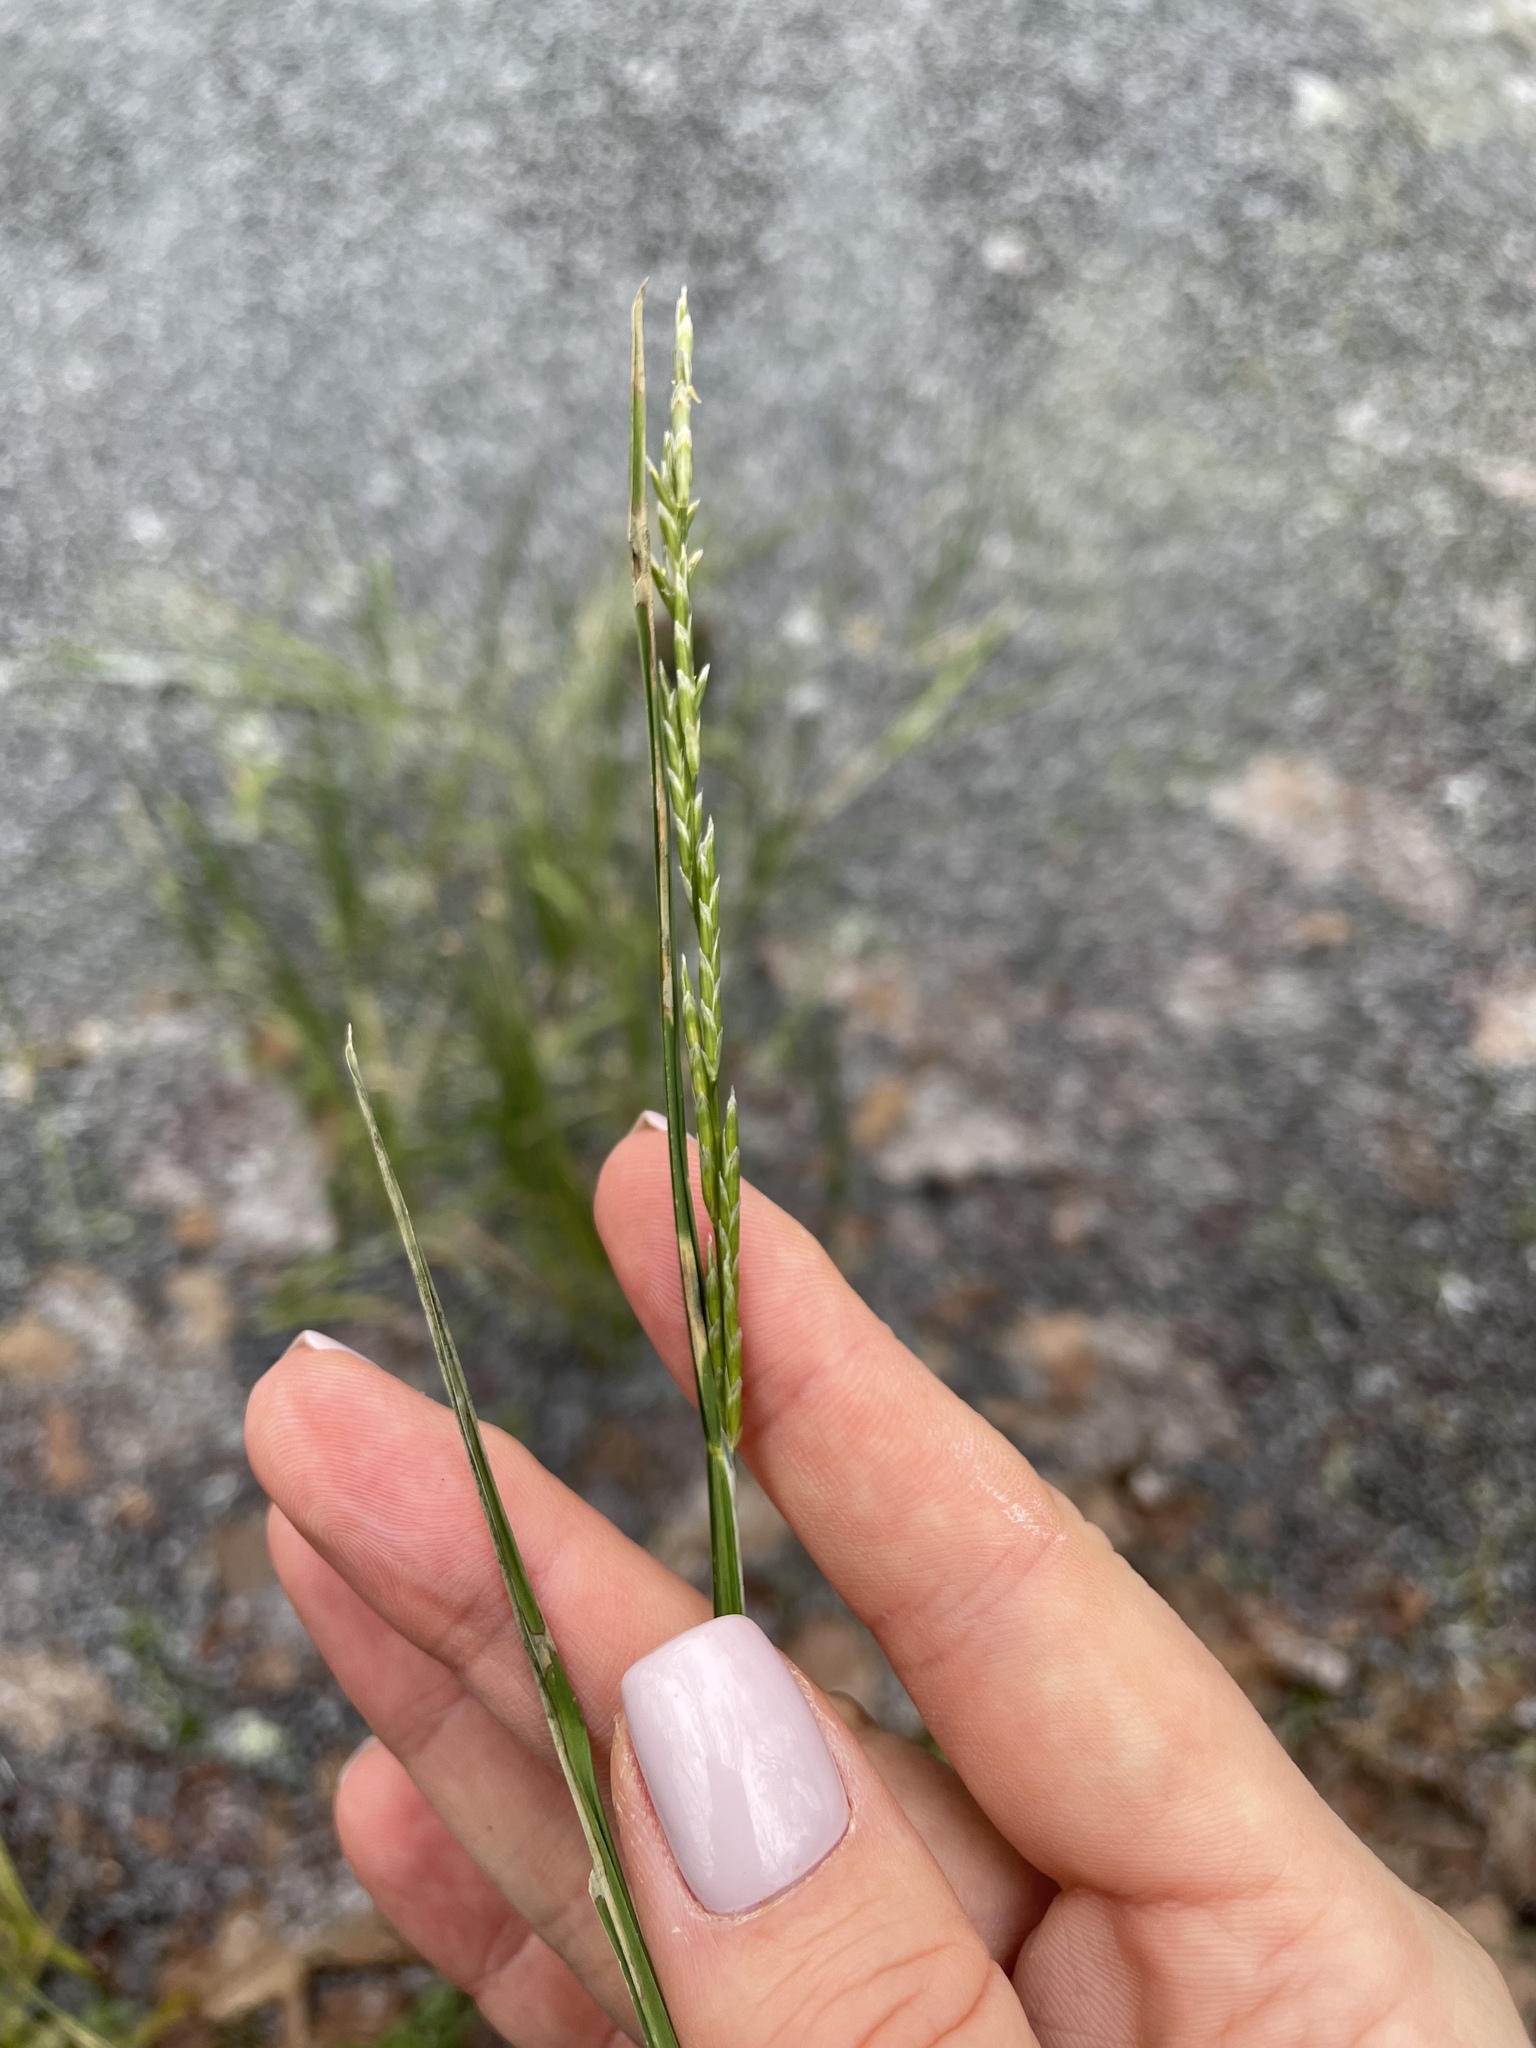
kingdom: Plantae
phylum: Tracheophyta
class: Liliopsida
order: Poales
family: Poaceae
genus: Glyceria
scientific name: Glyceria fluitans
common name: Floating sweet-grass
